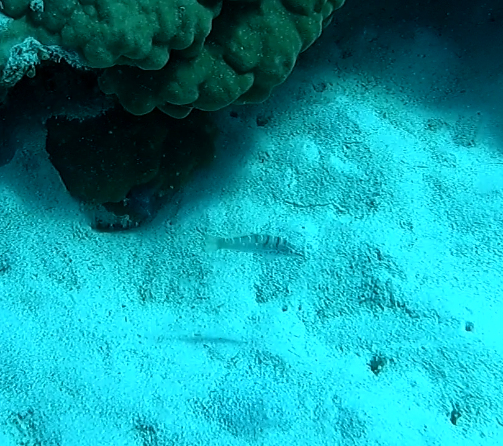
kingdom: Animalia
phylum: Chordata
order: Perciformes
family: Labridae
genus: Coris
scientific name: Coris batuensis
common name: Batu coris
